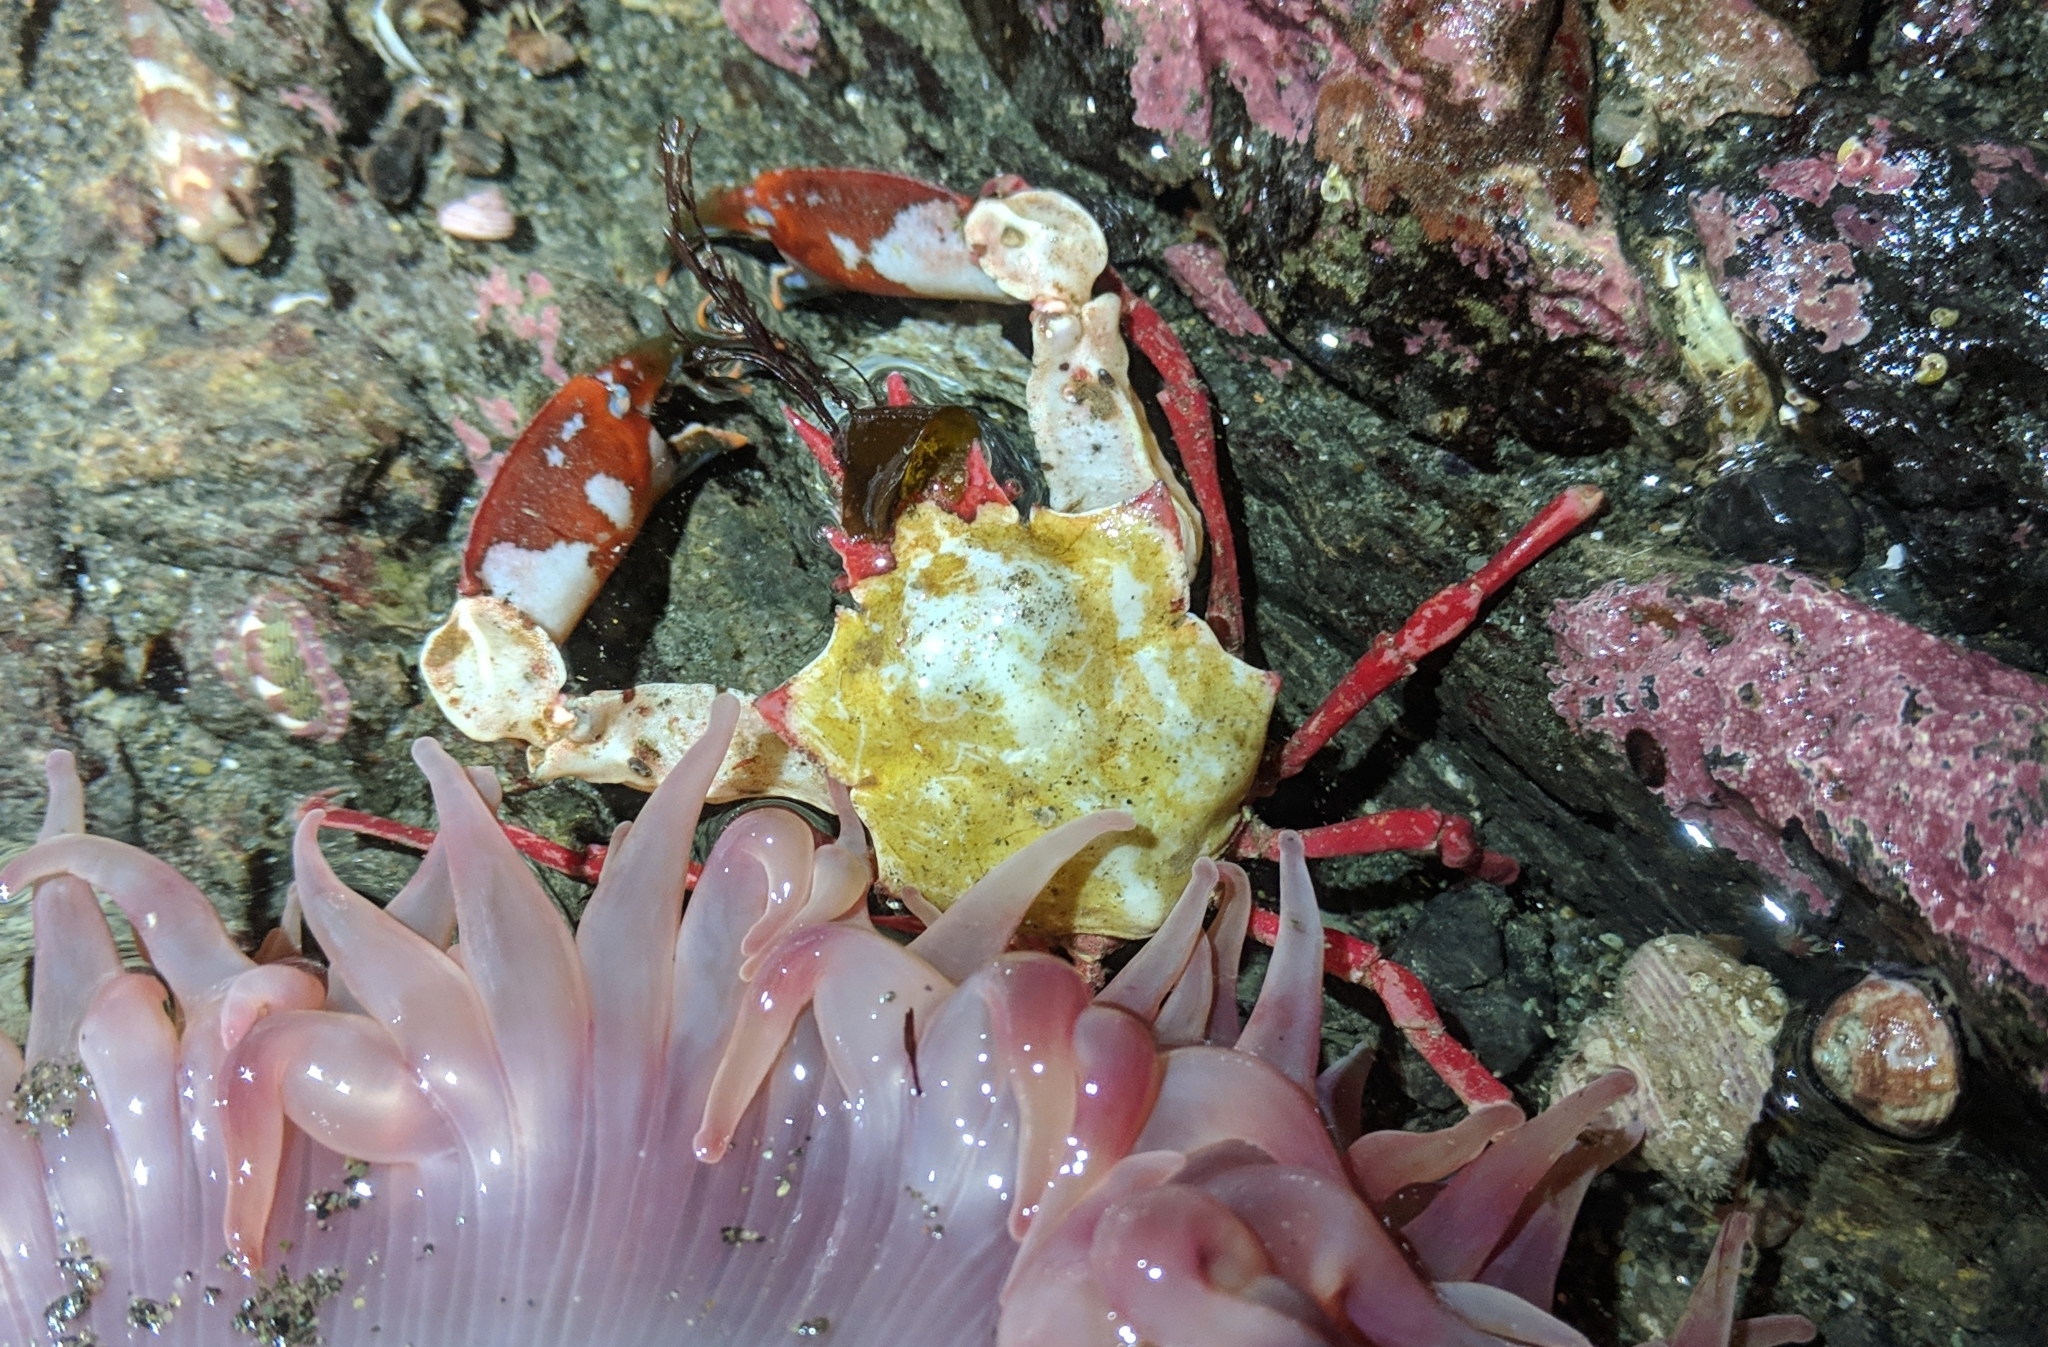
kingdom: Animalia
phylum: Arthropoda
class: Malacostraca
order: Decapoda
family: Epialtidae
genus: Pugettia
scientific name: Pugettia gracilis
